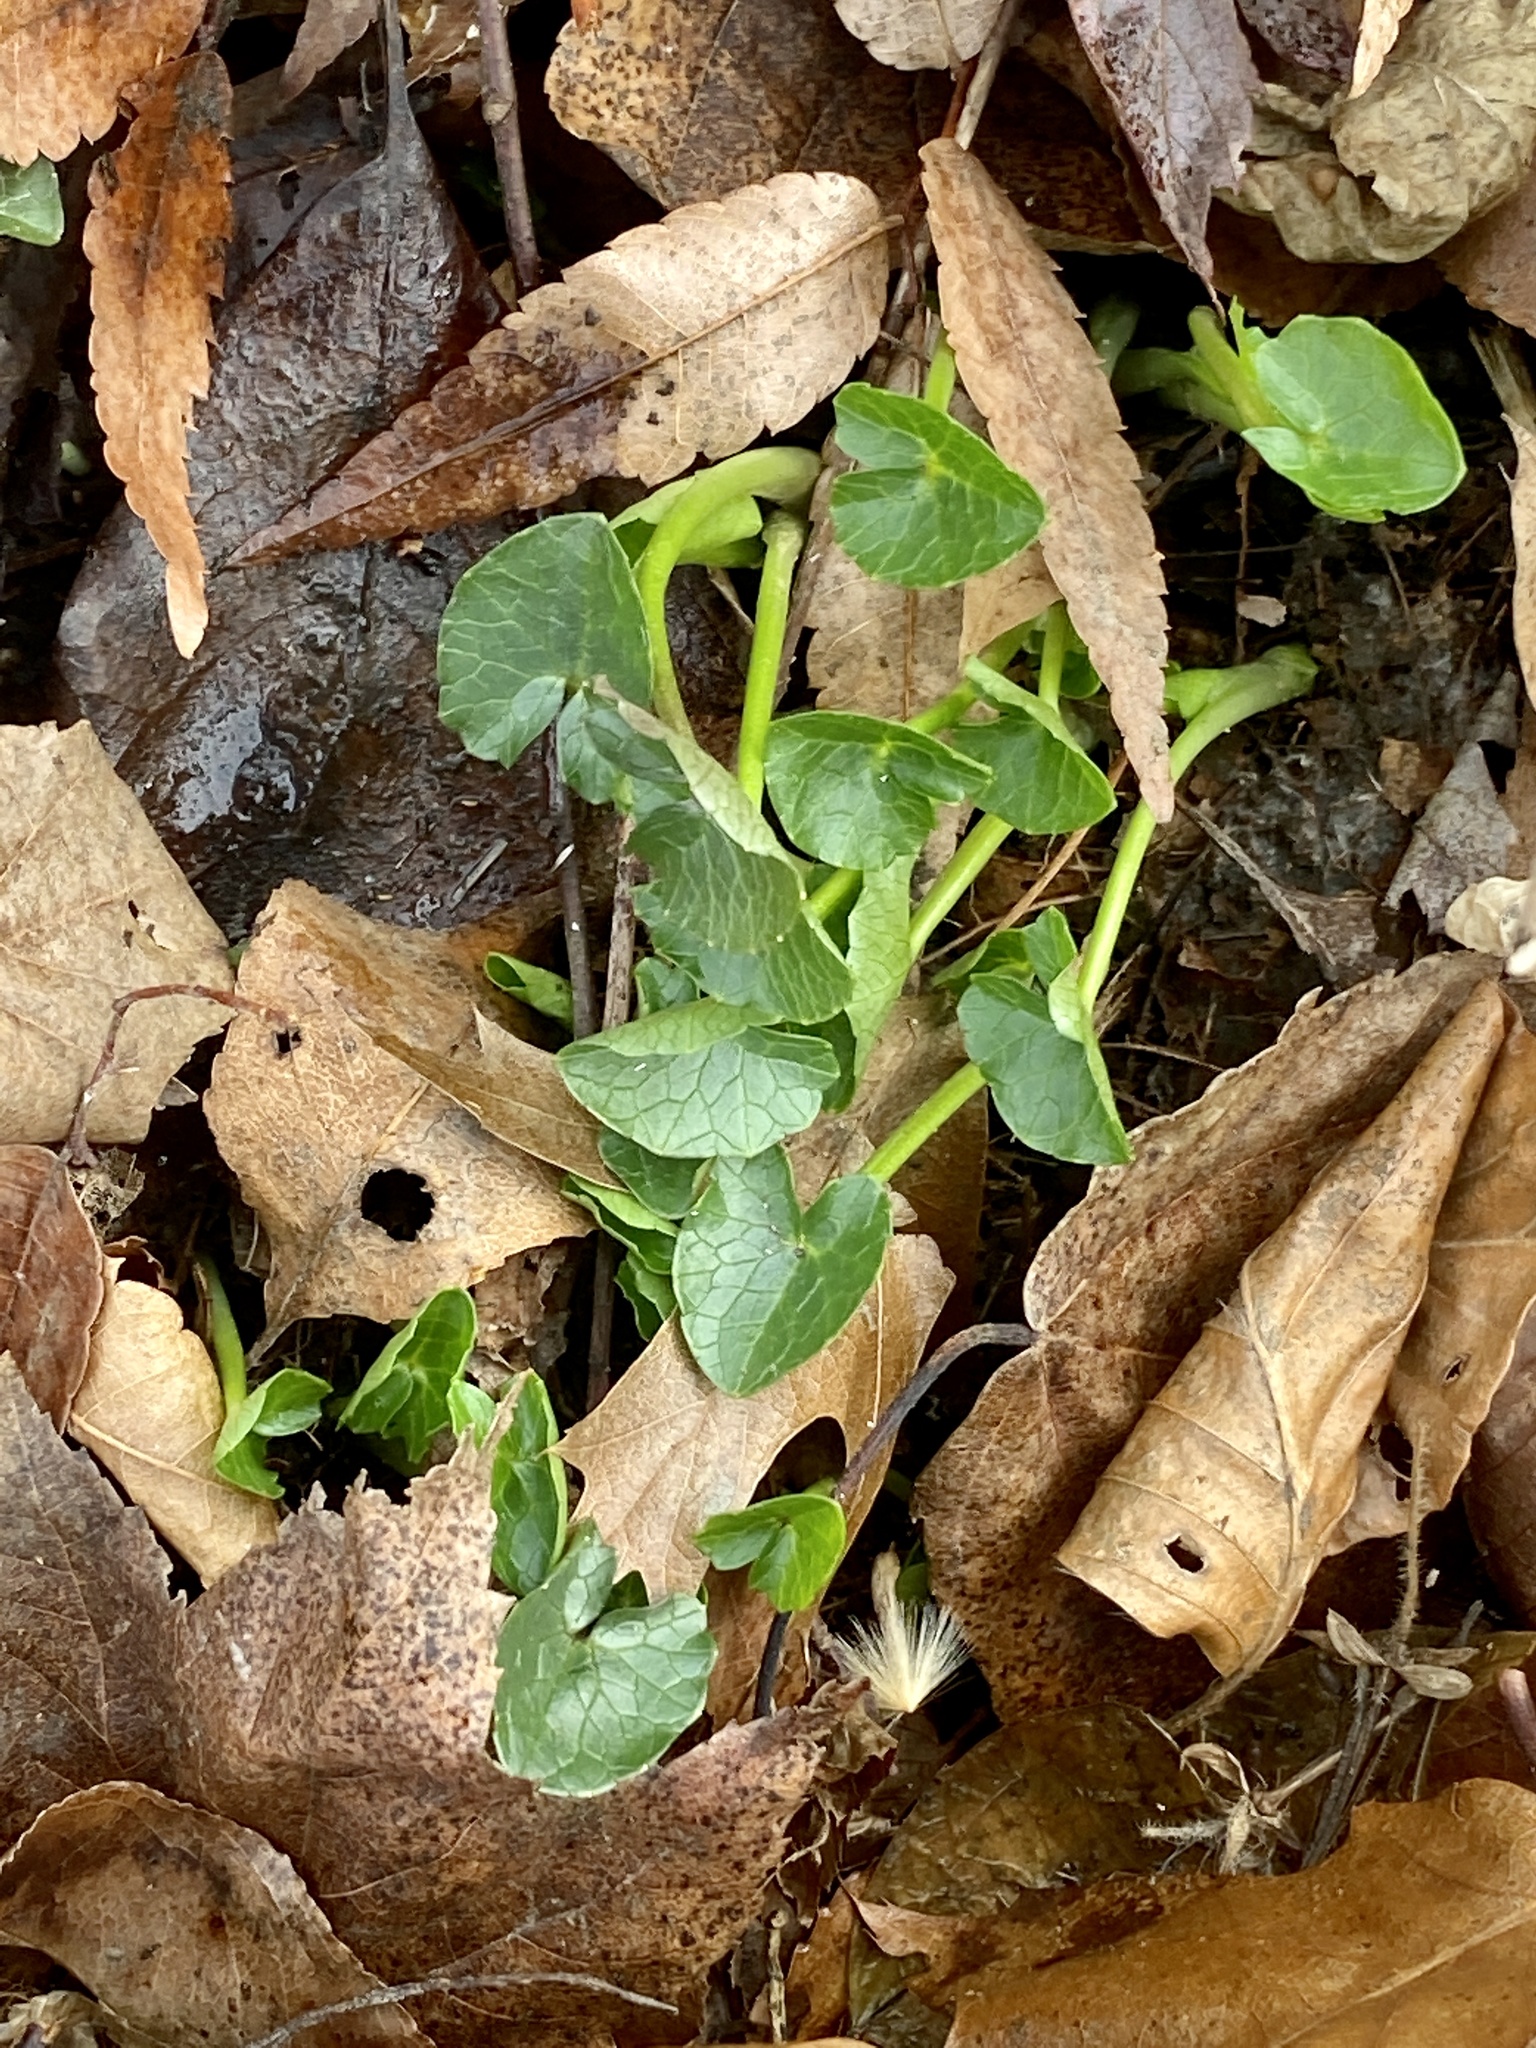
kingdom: Plantae
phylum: Tracheophyta
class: Magnoliopsida
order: Ranunculales
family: Ranunculaceae
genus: Ficaria
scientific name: Ficaria verna
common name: Lesser celandine
